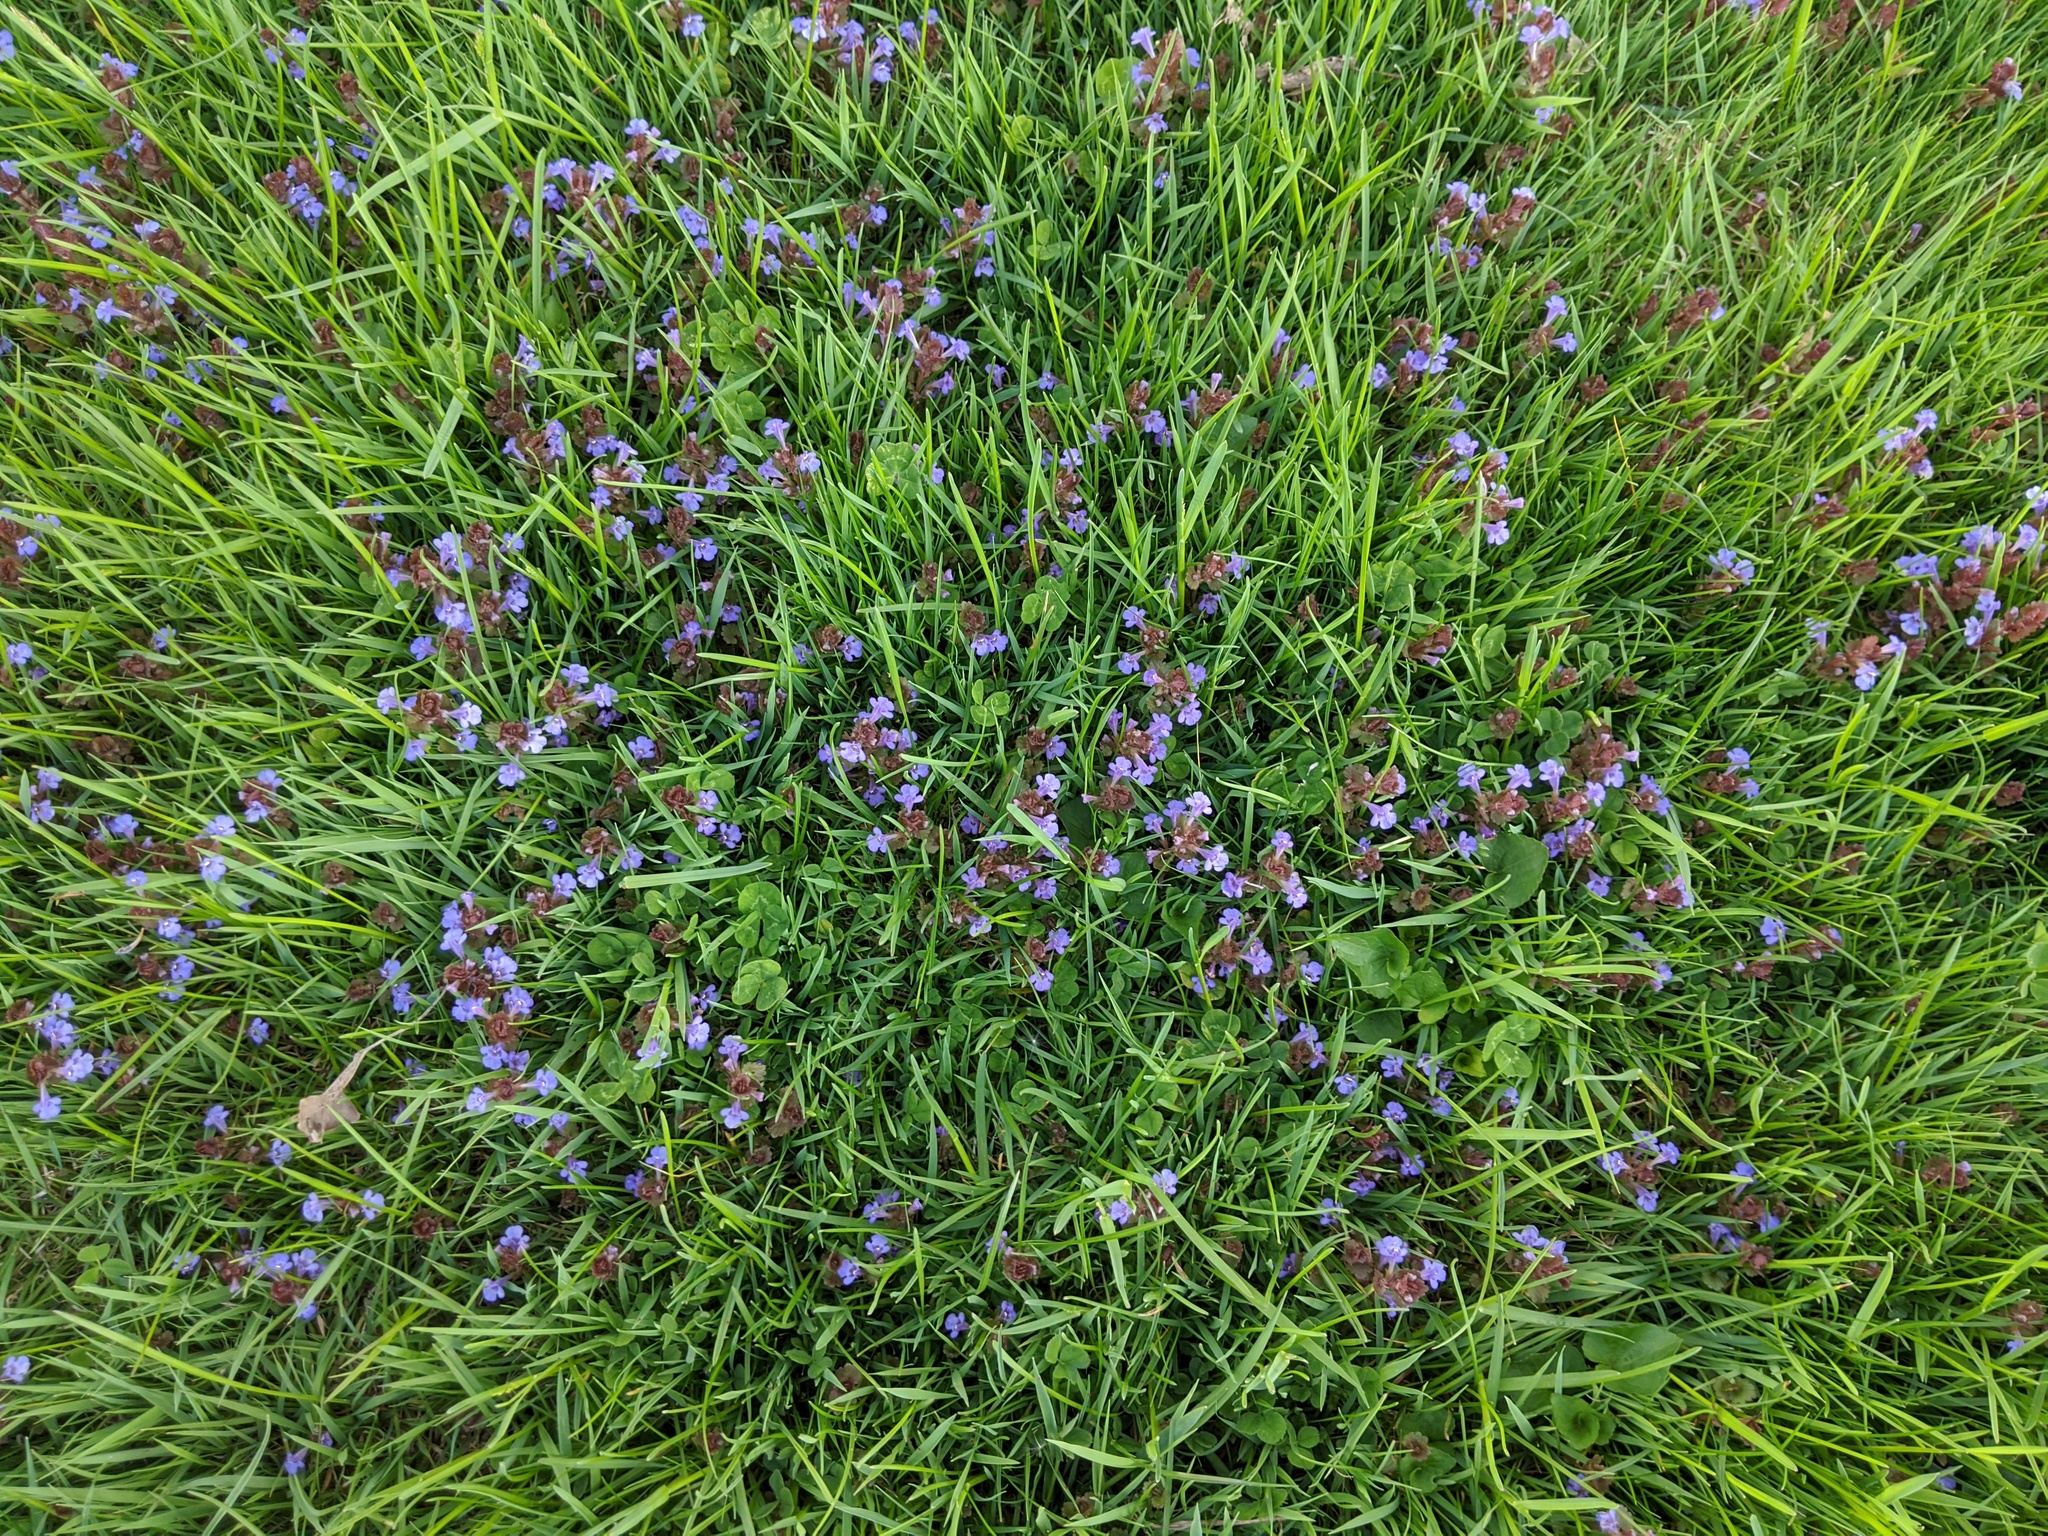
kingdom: Plantae
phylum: Tracheophyta
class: Magnoliopsida
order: Lamiales
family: Lamiaceae
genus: Glechoma
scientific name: Glechoma hederacea
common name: Ground ivy
